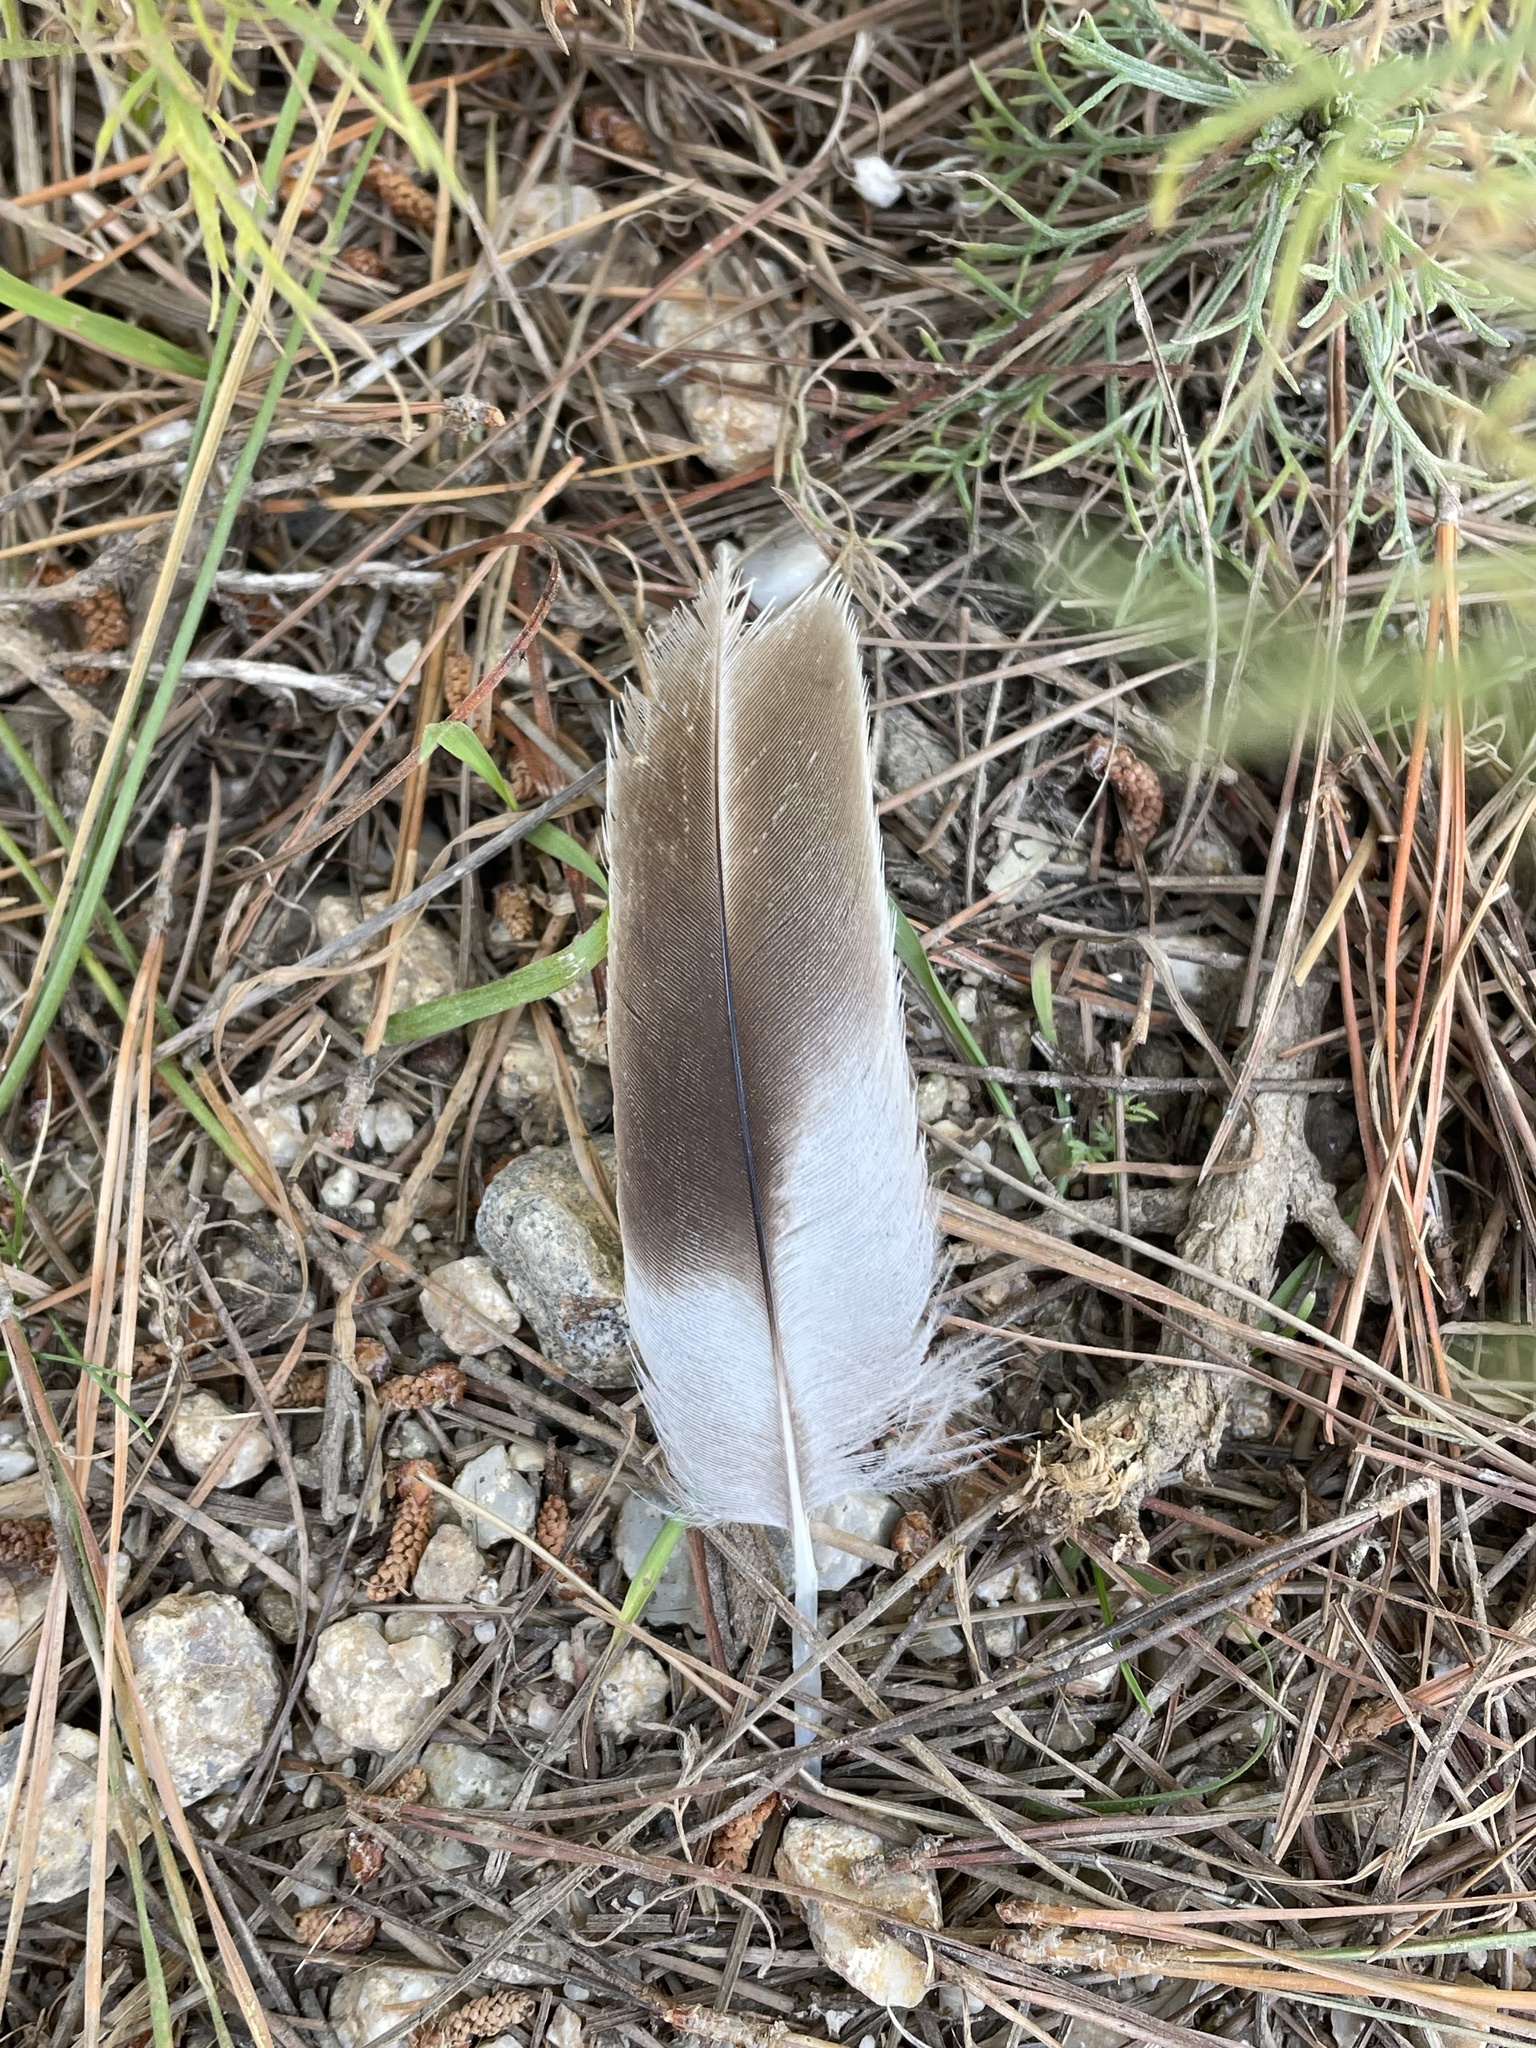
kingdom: Animalia
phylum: Chordata
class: Aves
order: Pelecaniformes
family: Pelecanidae
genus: Pelecanus
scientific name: Pelecanus occidentalis
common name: Brown pelican
